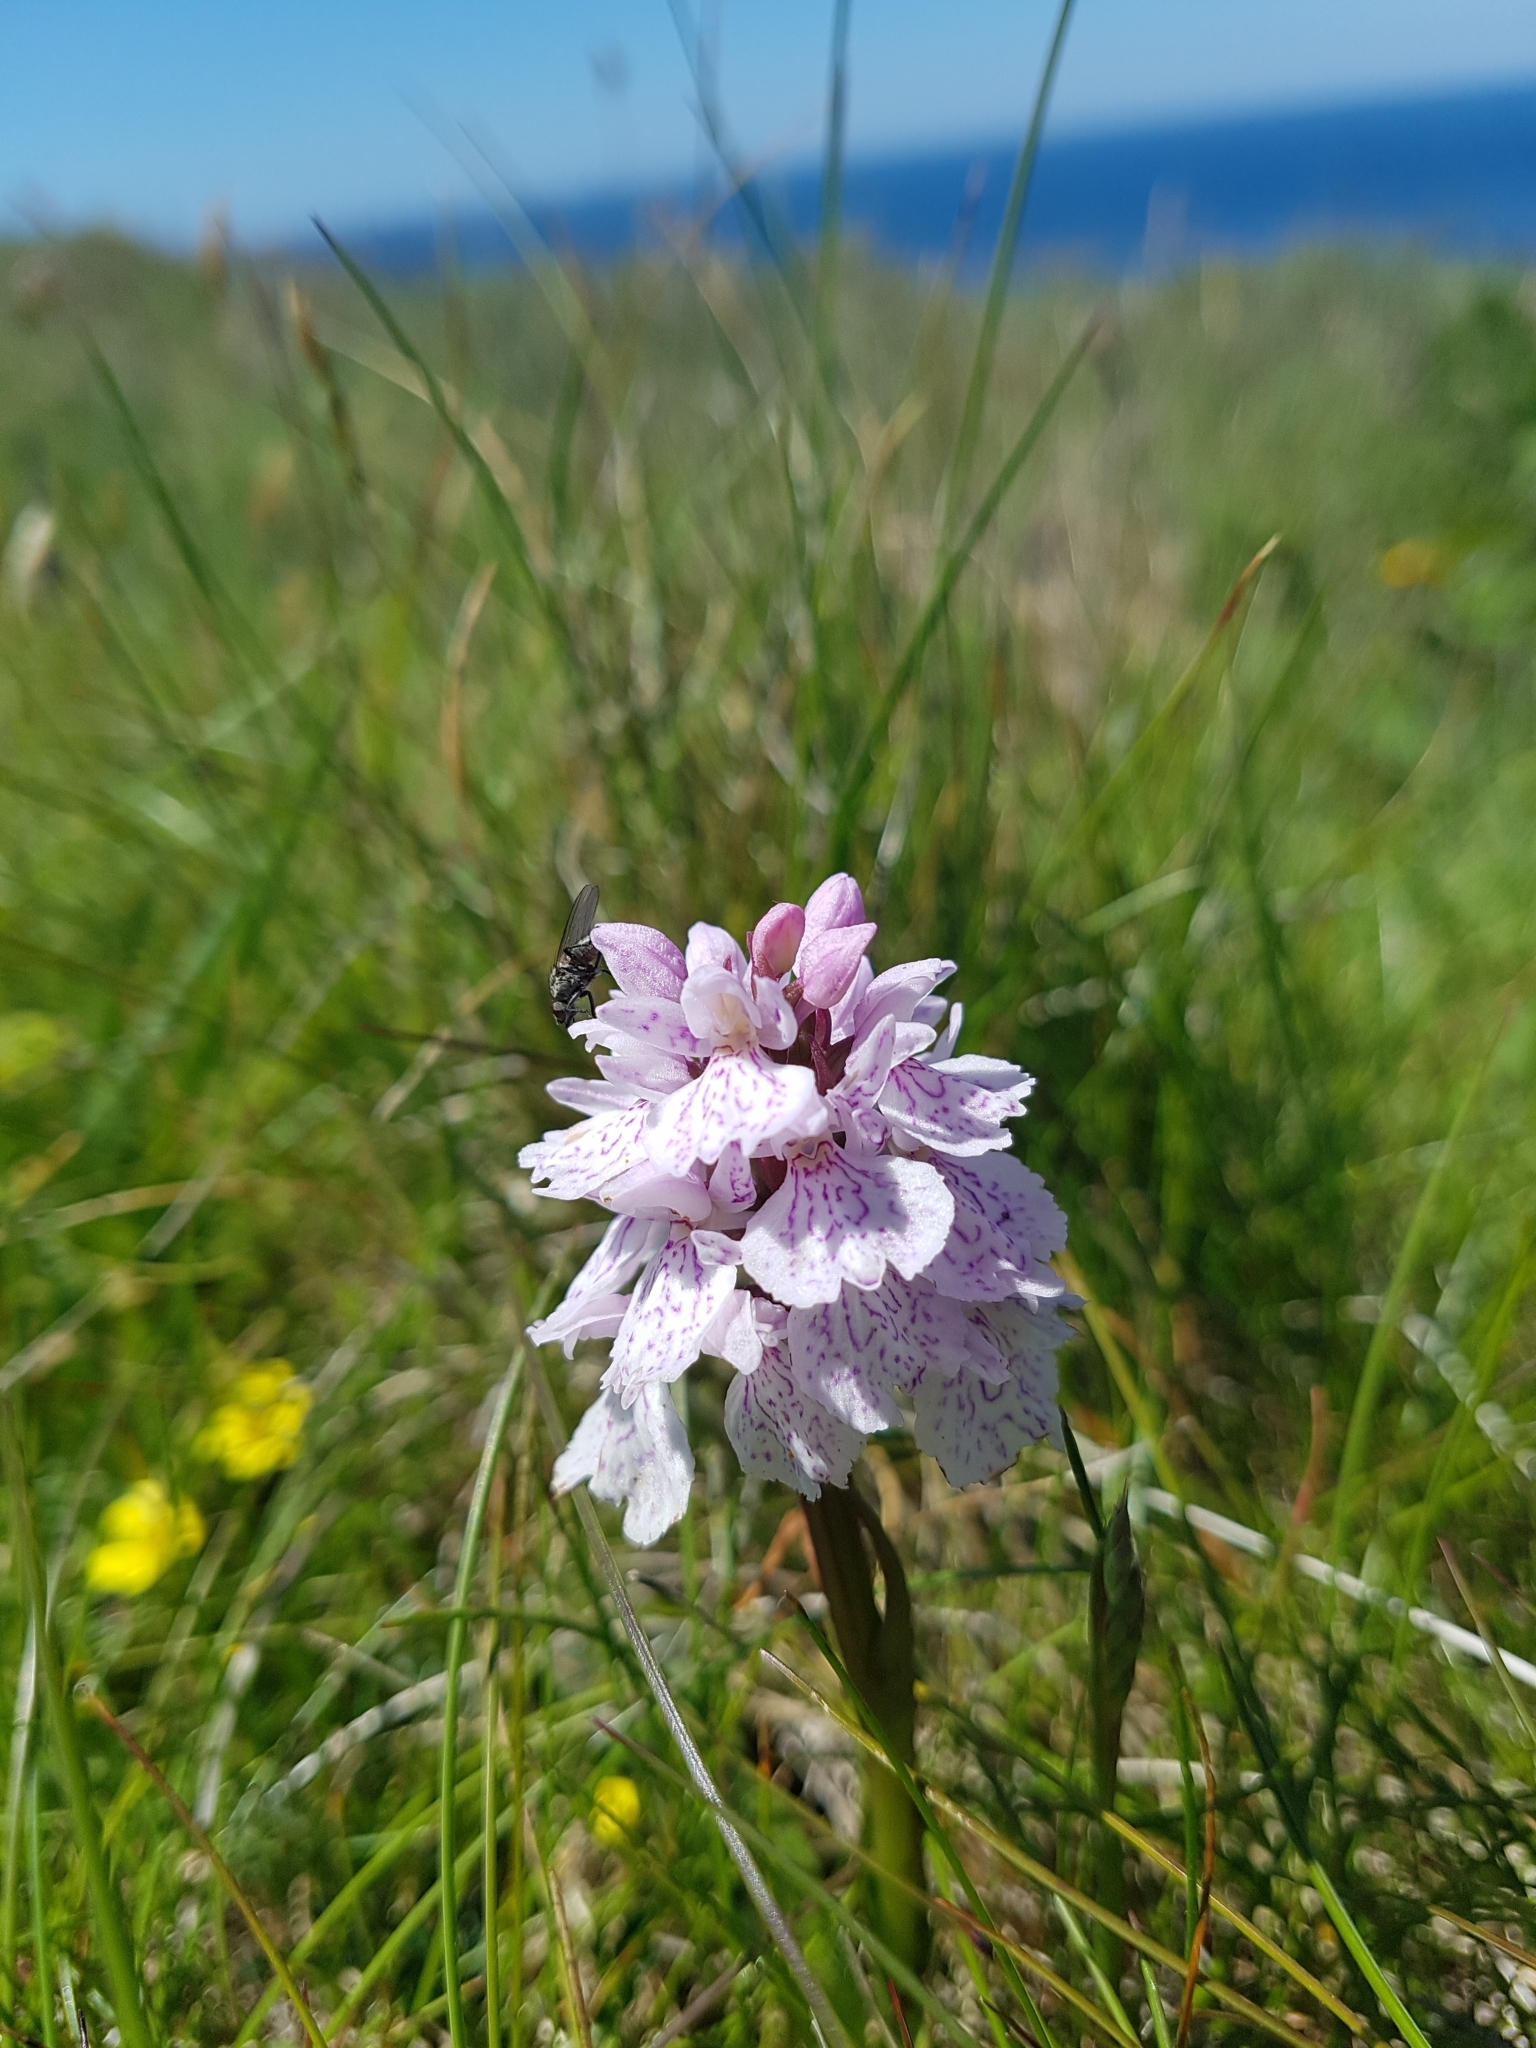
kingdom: Plantae
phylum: Tracheophyta
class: Liliopsida
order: Asparagales
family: Orchidaceae
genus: Dactylorhiza
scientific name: Dactylorhiza maculata
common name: Heath spotted-orchid
